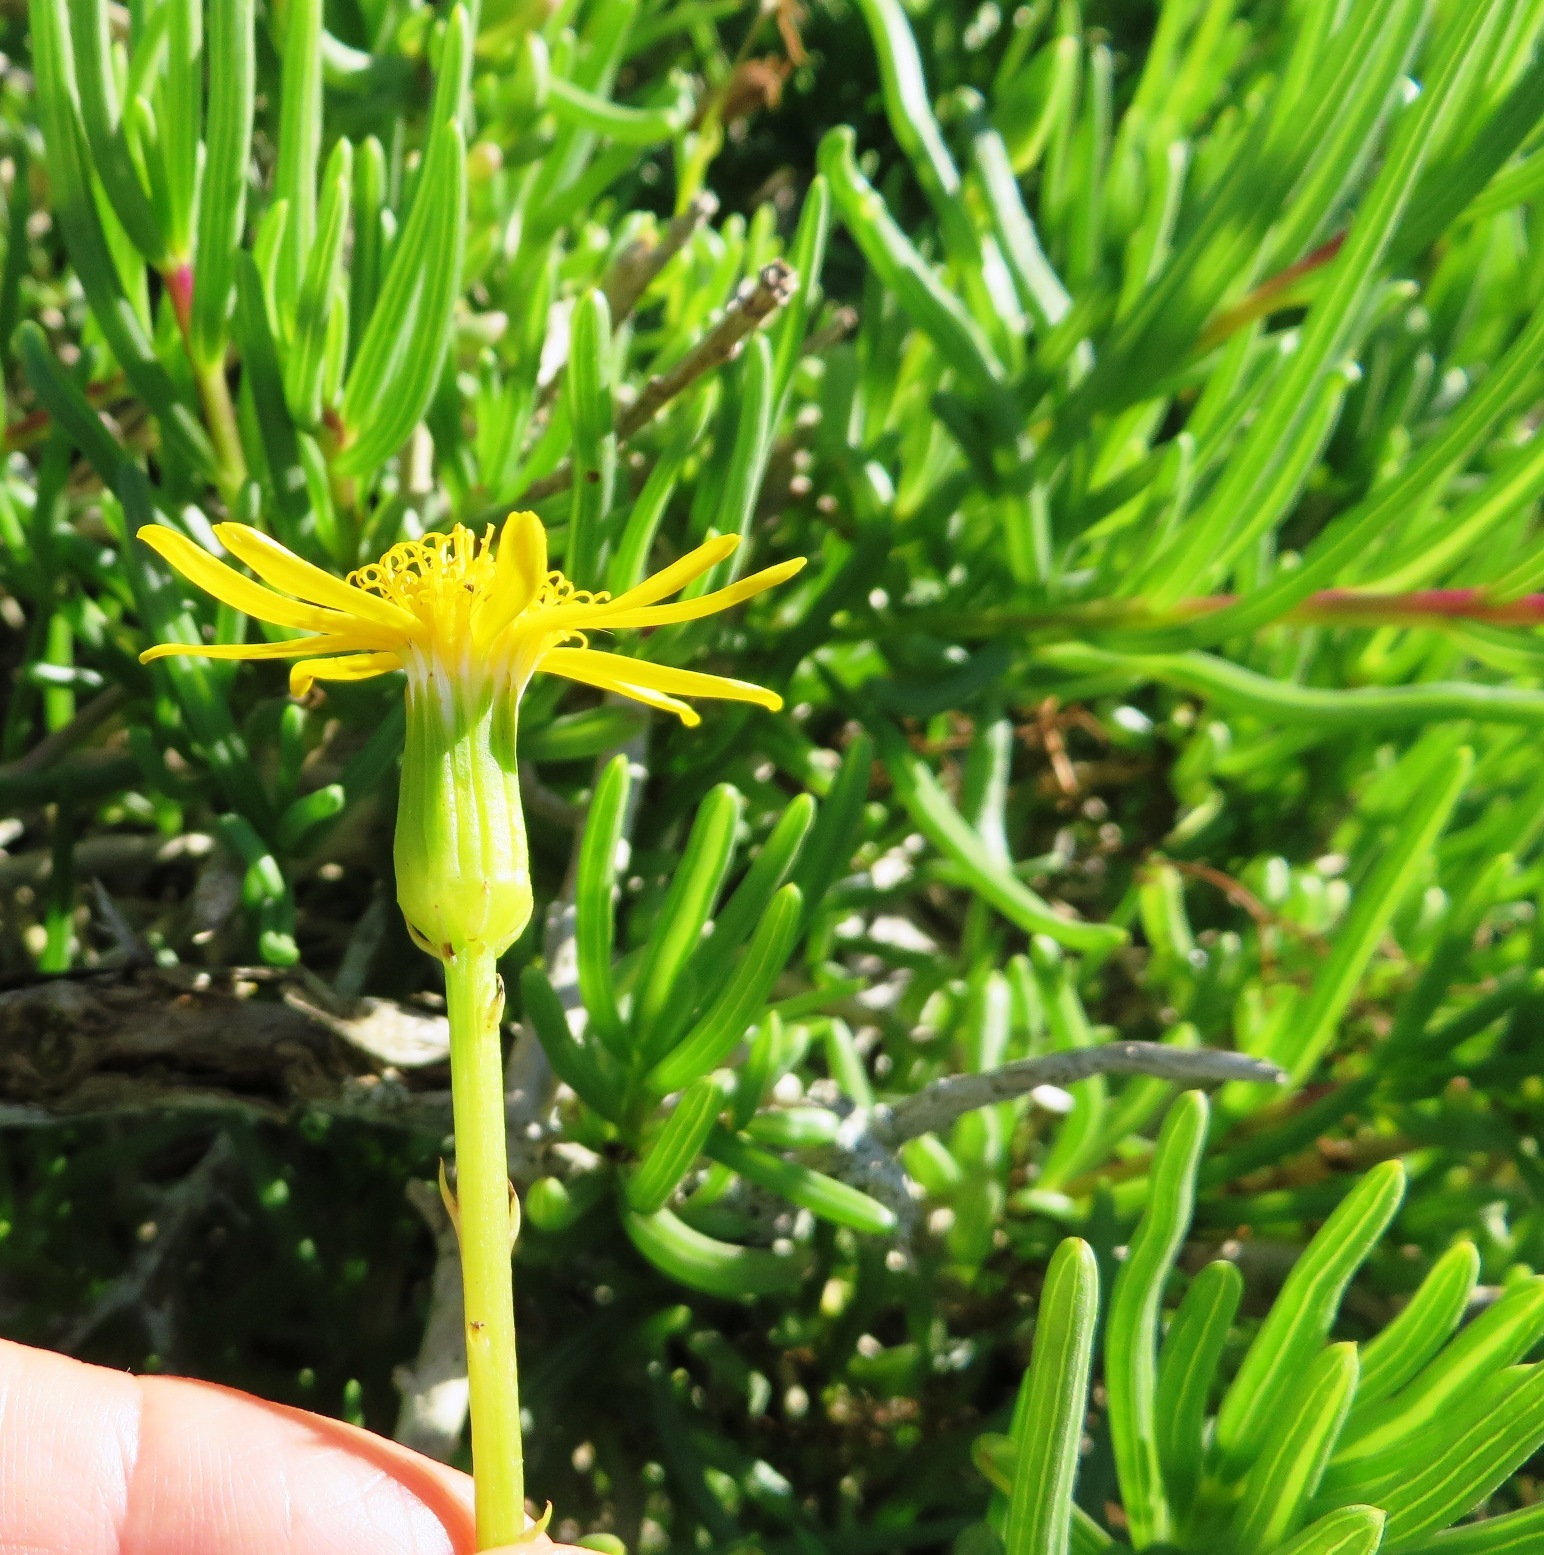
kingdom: Plantae
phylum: Tracheophyta
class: Magnoliopsida
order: Asterales
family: Asteraceae
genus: Senecio
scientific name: Senecio alooides
